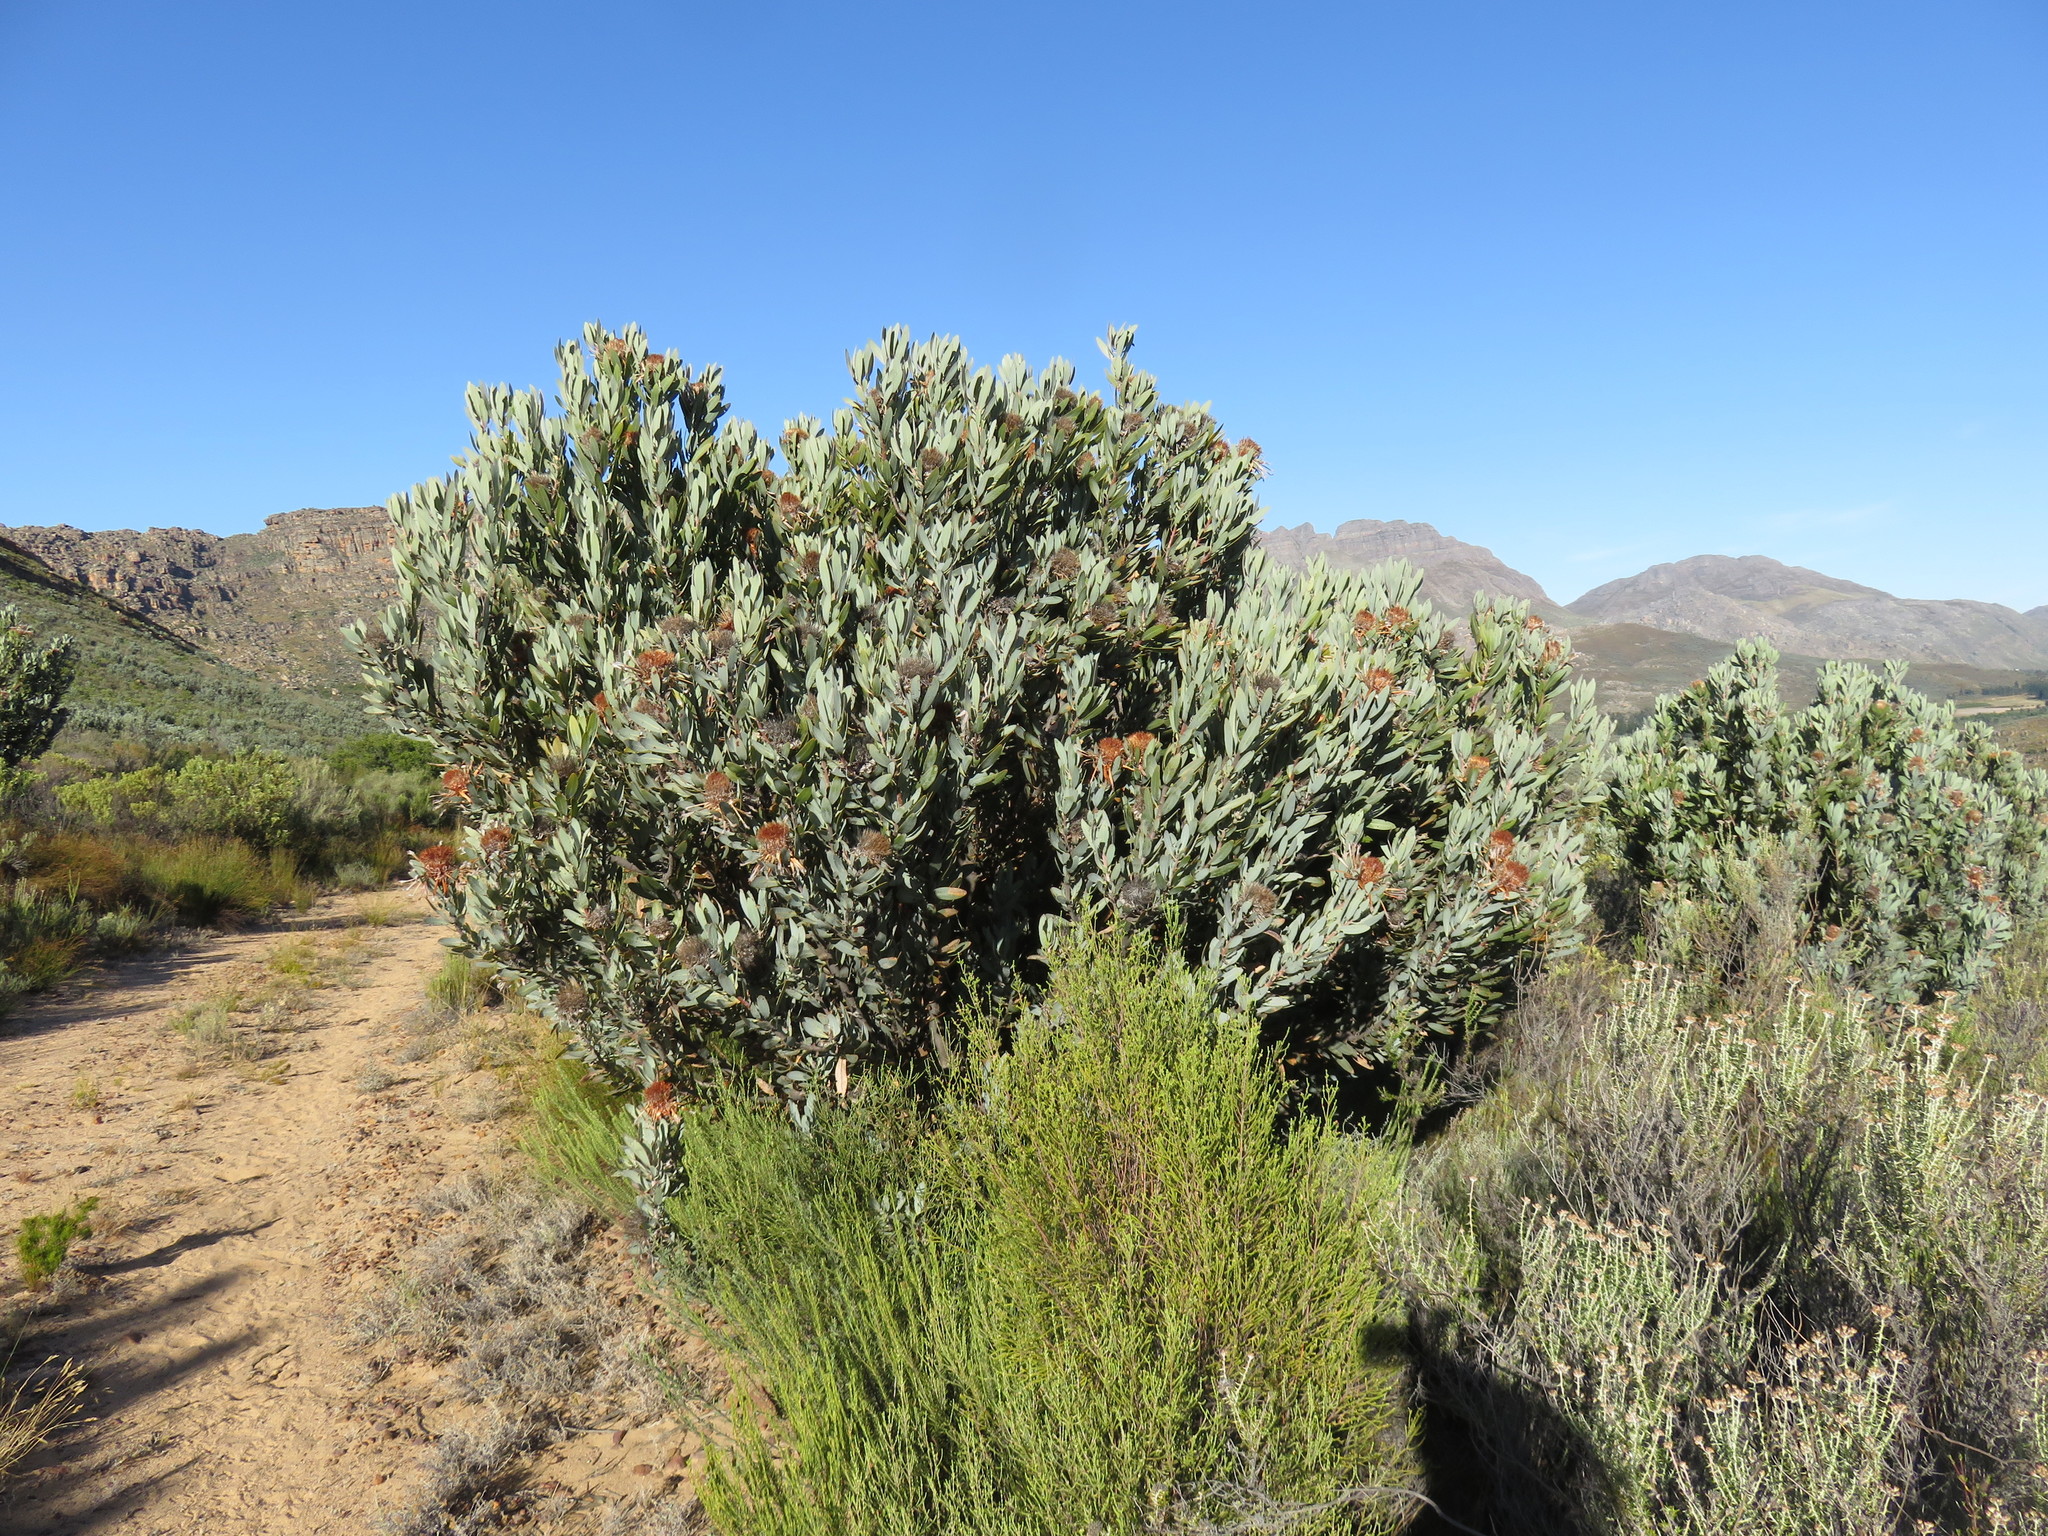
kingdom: Plantae
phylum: Tracheophyta
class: Magnoliopsida
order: Proteales
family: Proteaceae
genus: Protea
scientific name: Protea laurifolia
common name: Grey-leaf sugarbsh
